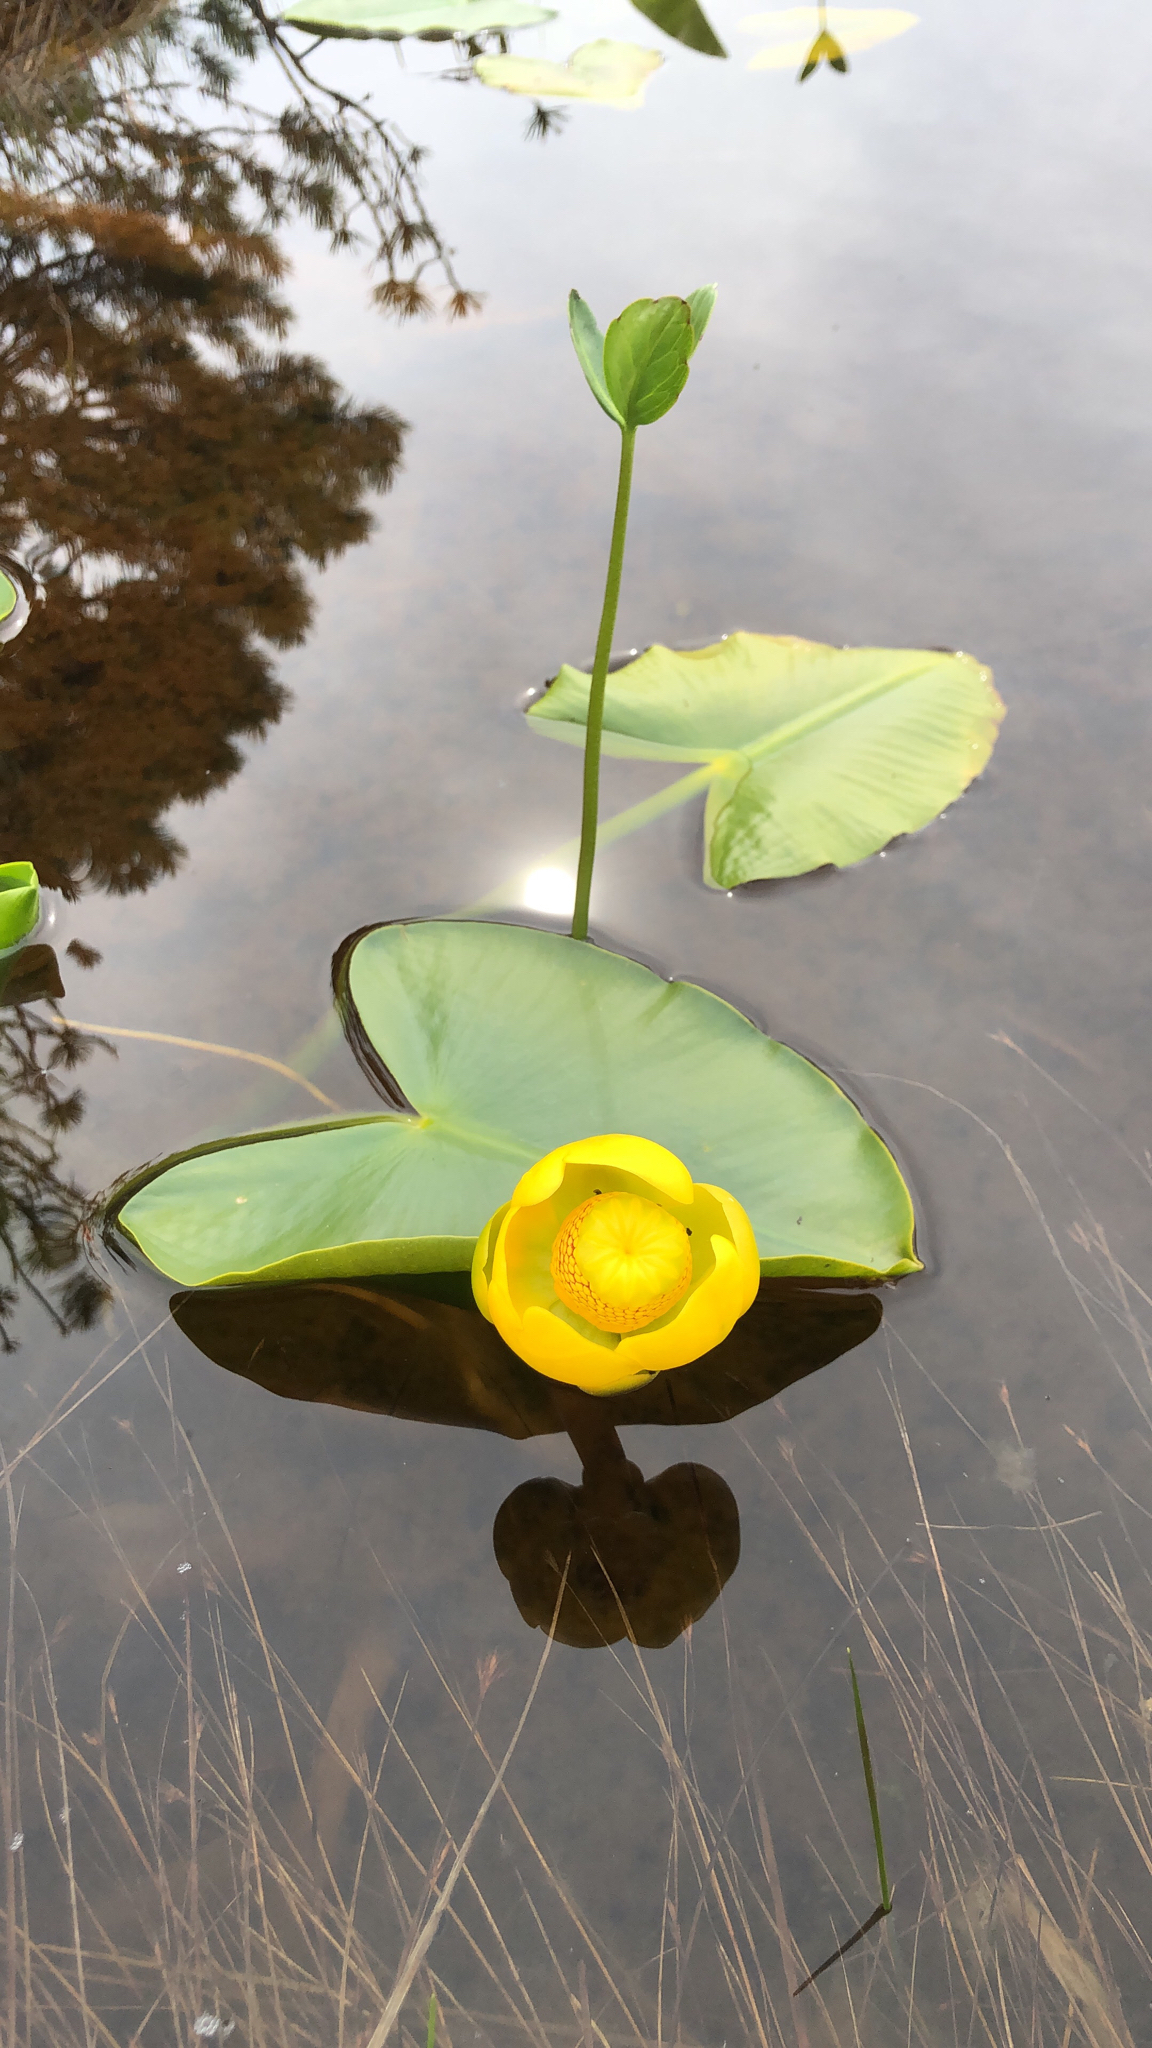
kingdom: Plantae
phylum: Tracheophyta
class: Magnoliopsida
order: Nymphaeales
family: Nymphaeaceae
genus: Nuphar
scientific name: Nuphar polysepala
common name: Rocky mountain cow-lily
